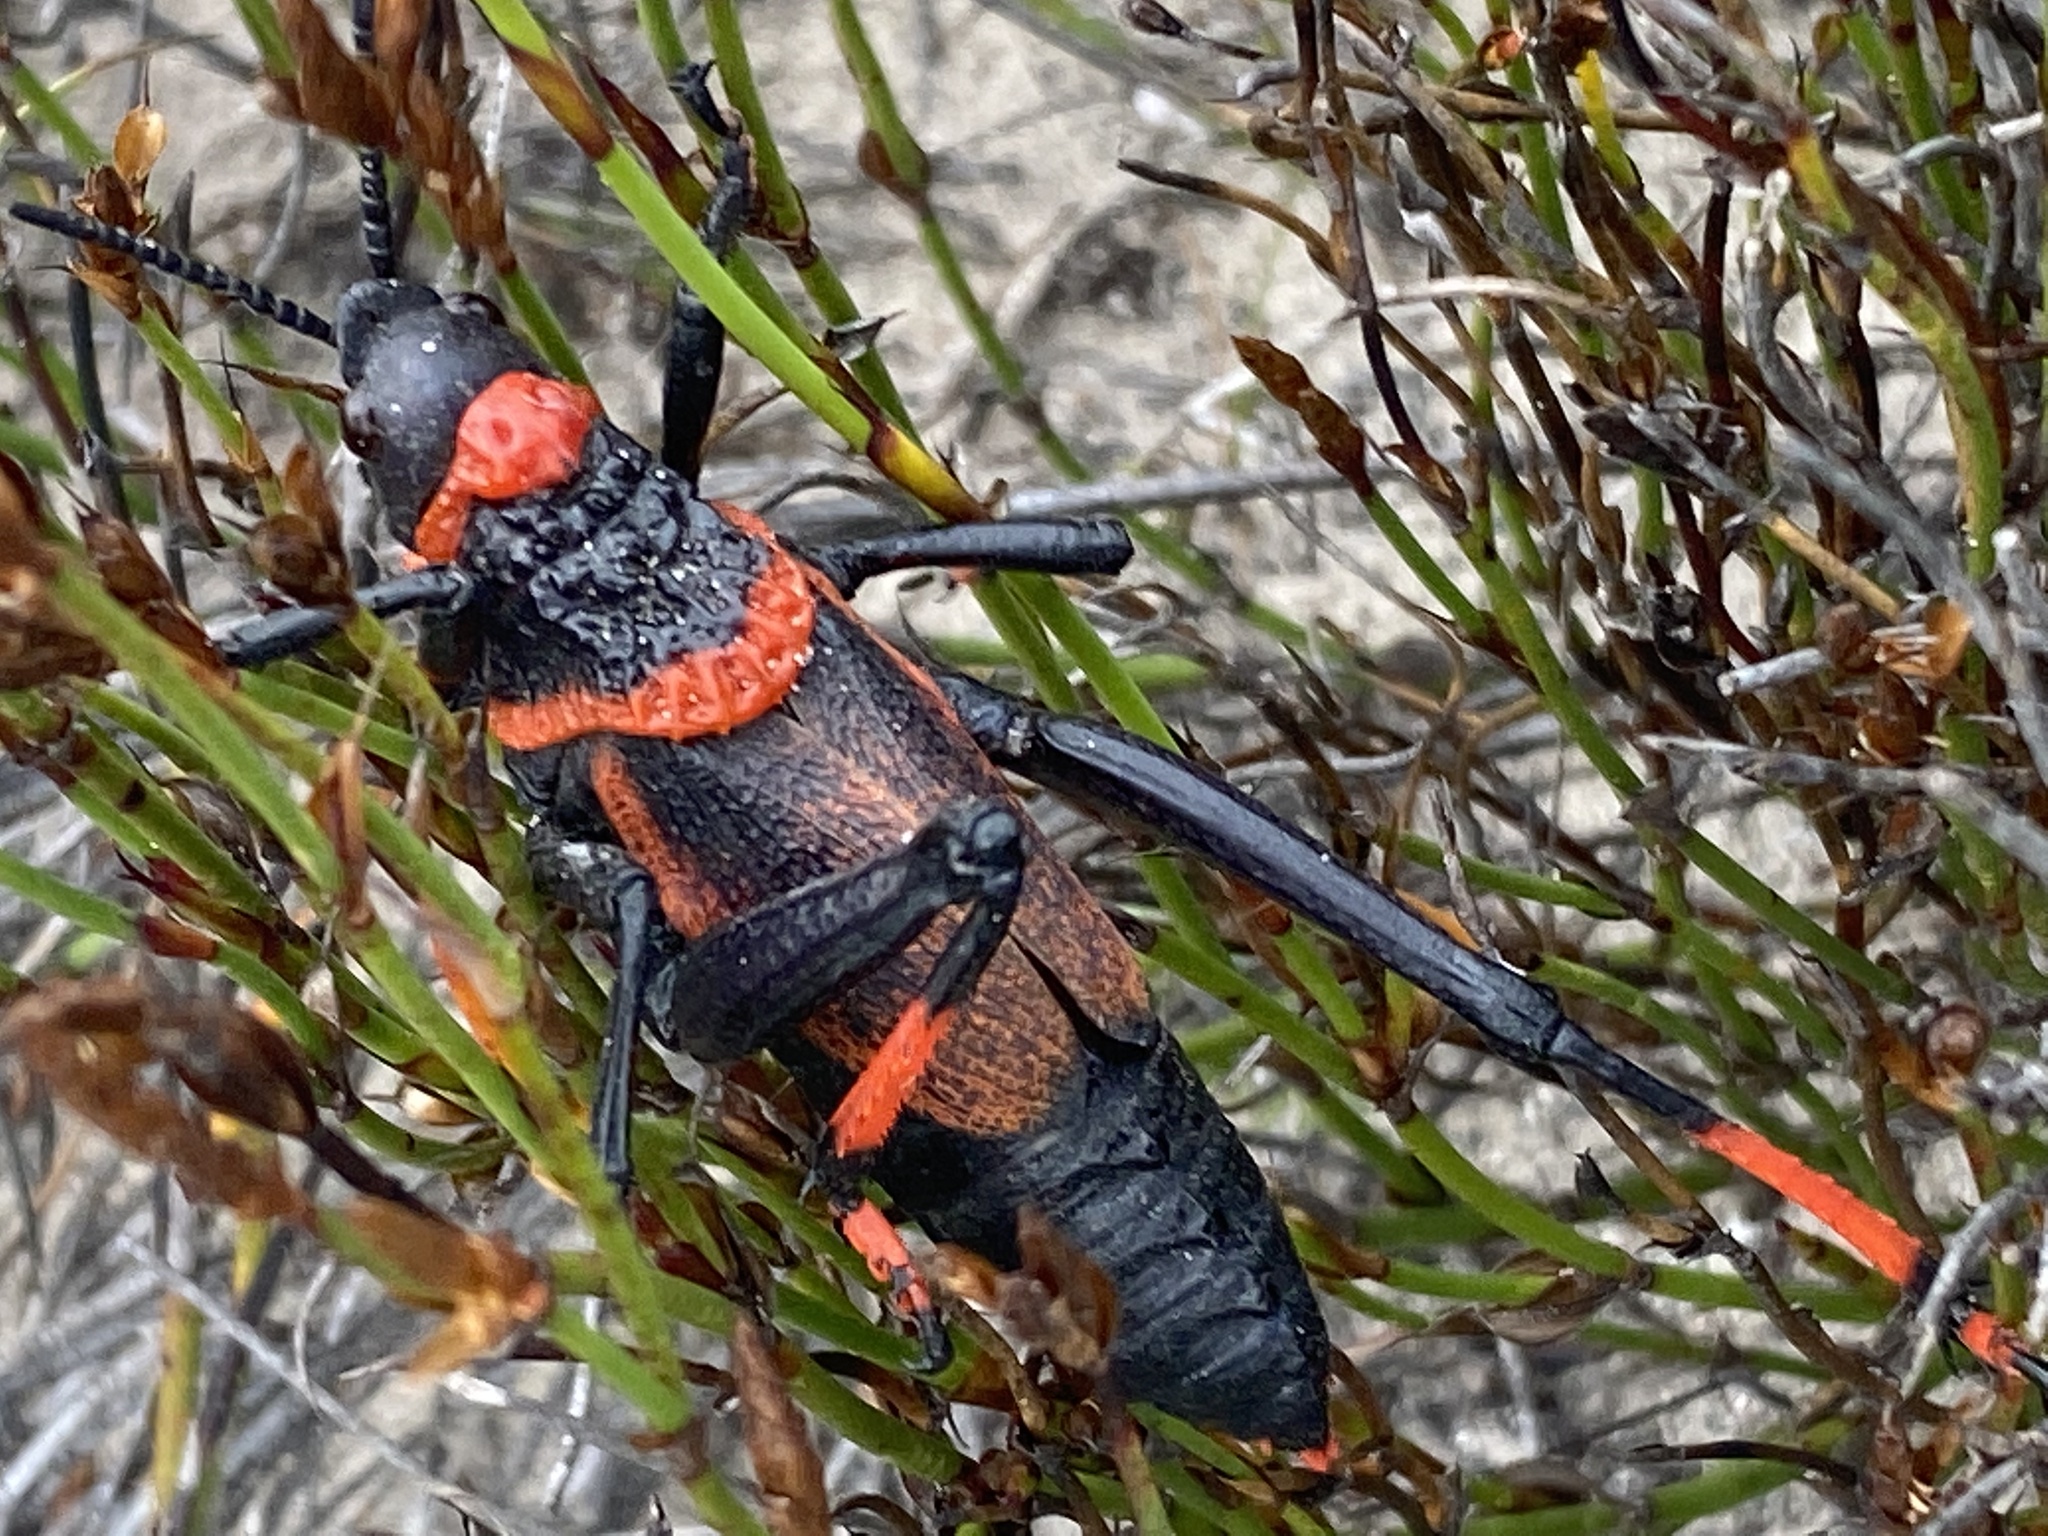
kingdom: Animalia
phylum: Arthropoda
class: Insecta
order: Orthoptera
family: Pyrgomorphidae
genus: Dictyophorus
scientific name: Dictyophorus spumans
